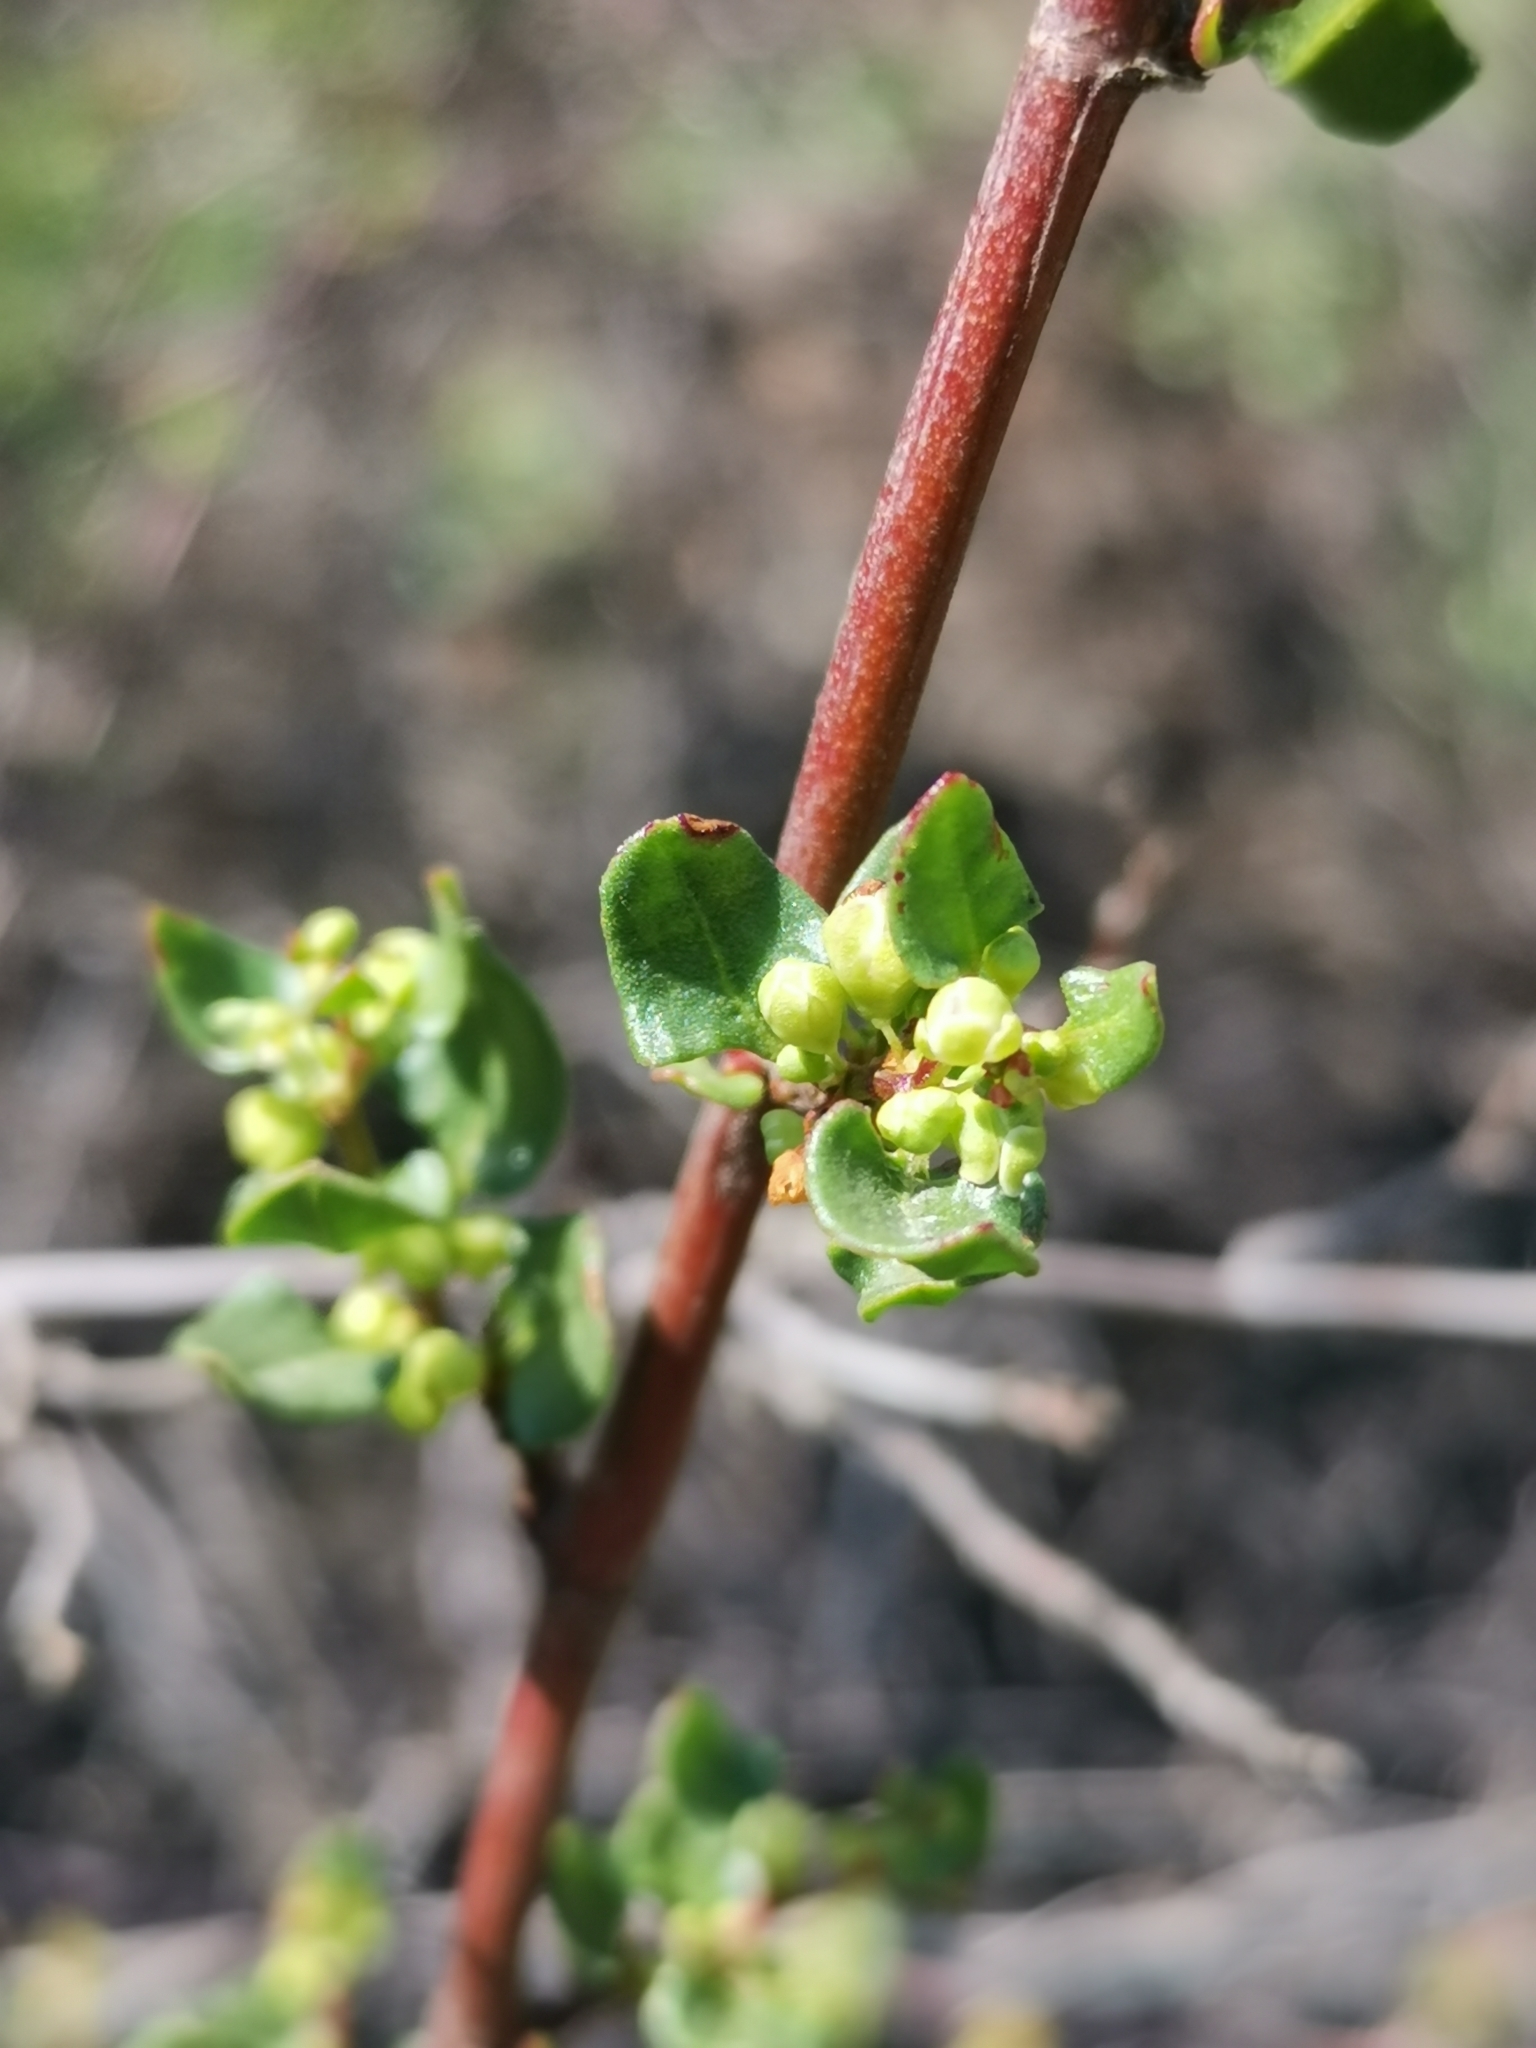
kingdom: Plantae
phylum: Tracheophyta
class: Magnoliopsida
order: Caryophyllales
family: Polygonaceae
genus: Muehlenbeckia
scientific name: Muehlenbeckia hastulata
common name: Wirevine
